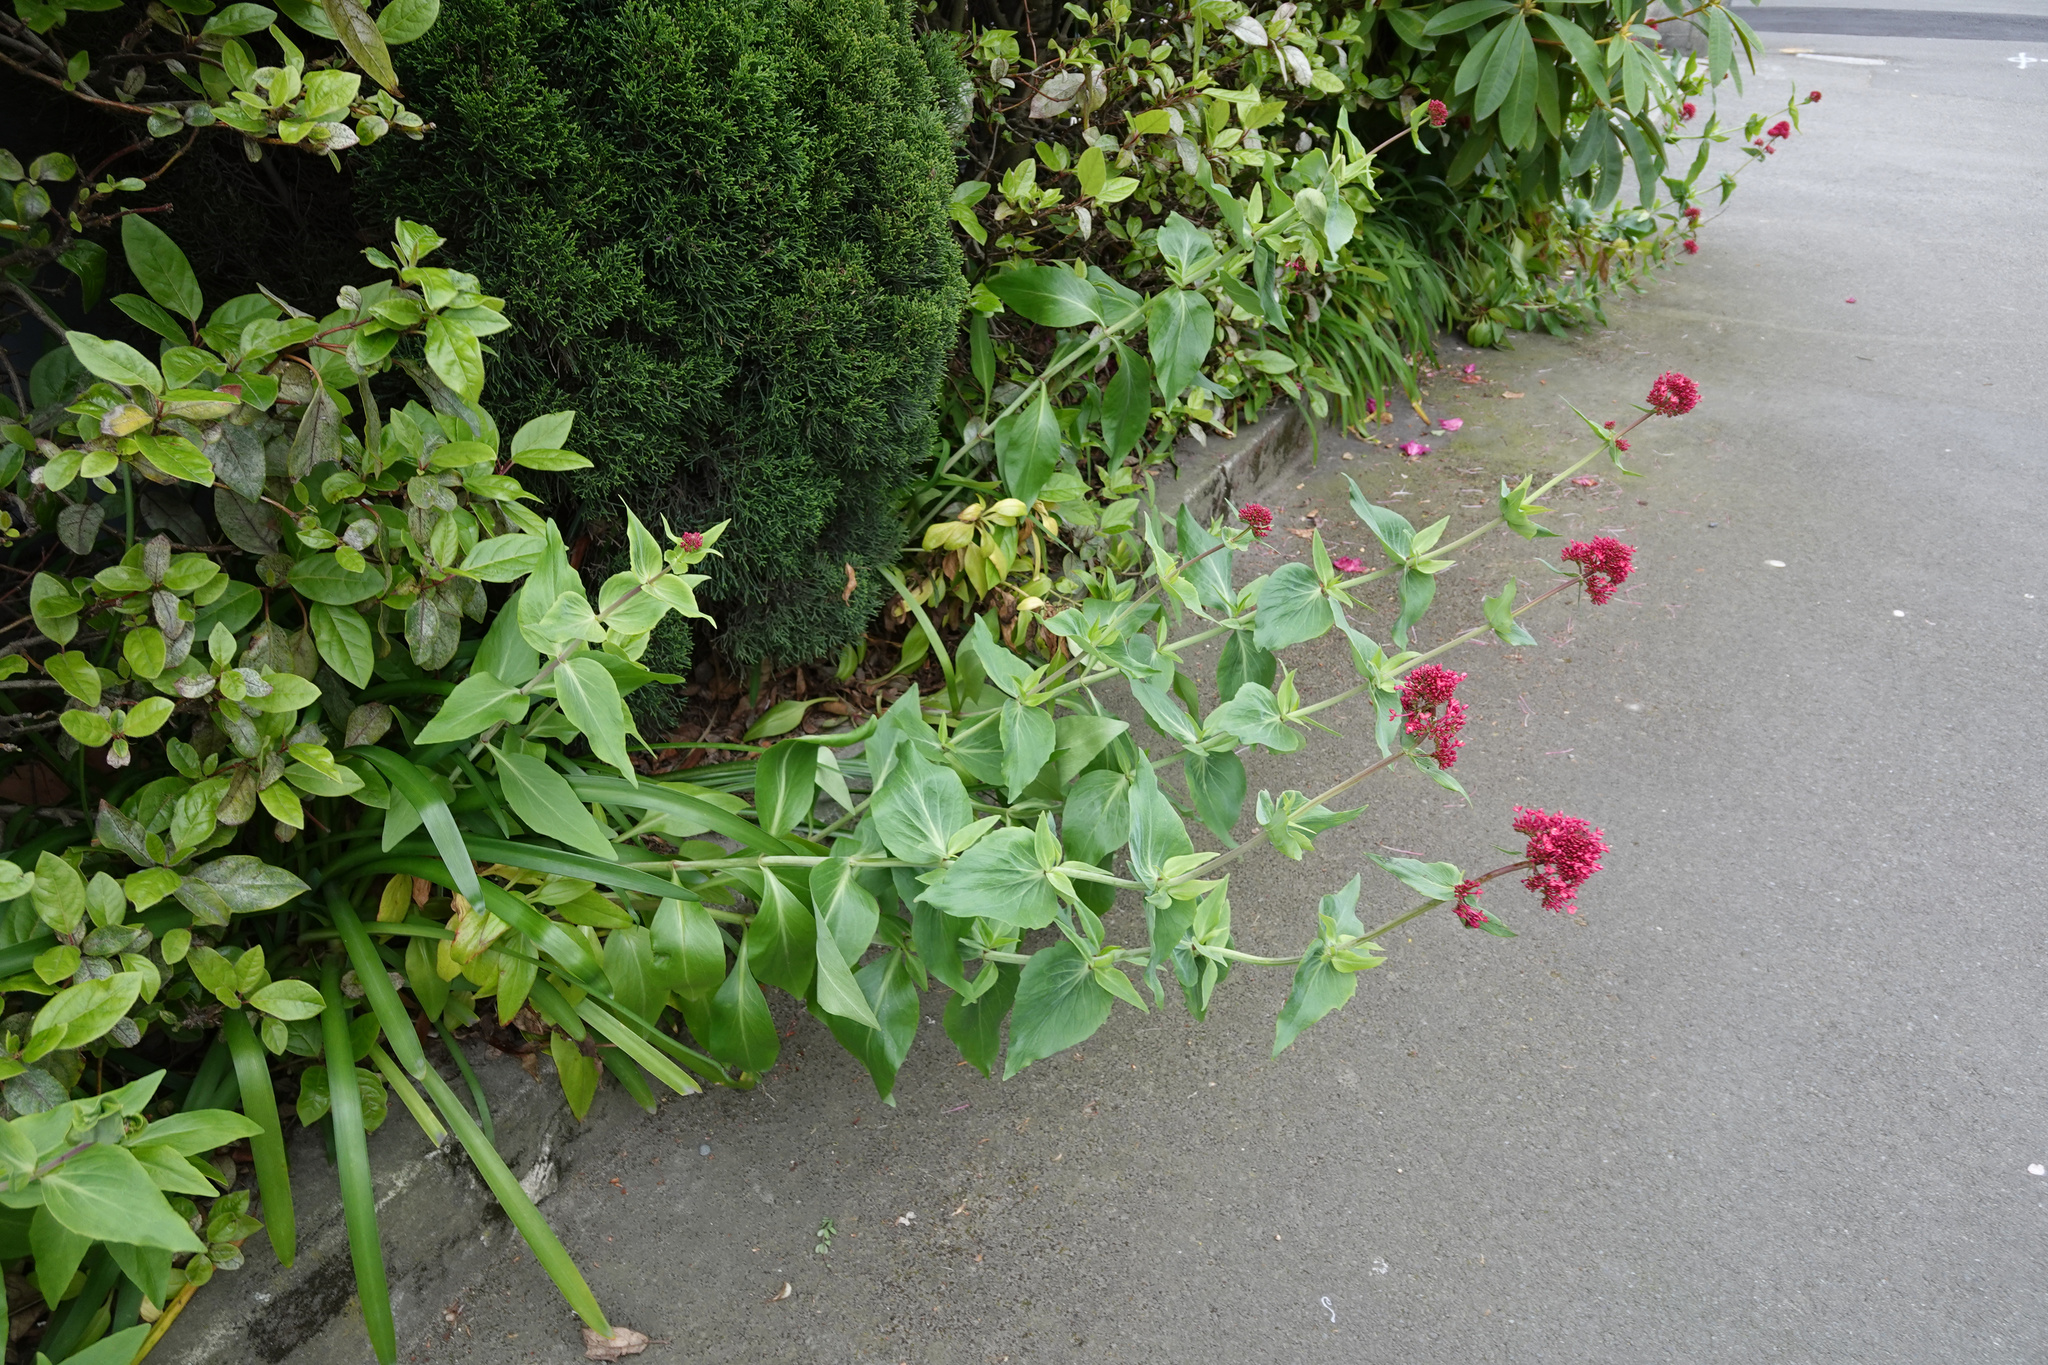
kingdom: Plantae
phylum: Tracheophyta
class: Magnoliopsida
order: Dipsacales
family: Caprifoliaceae
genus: Centranthus
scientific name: Centranthus ruber
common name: Red valerian
